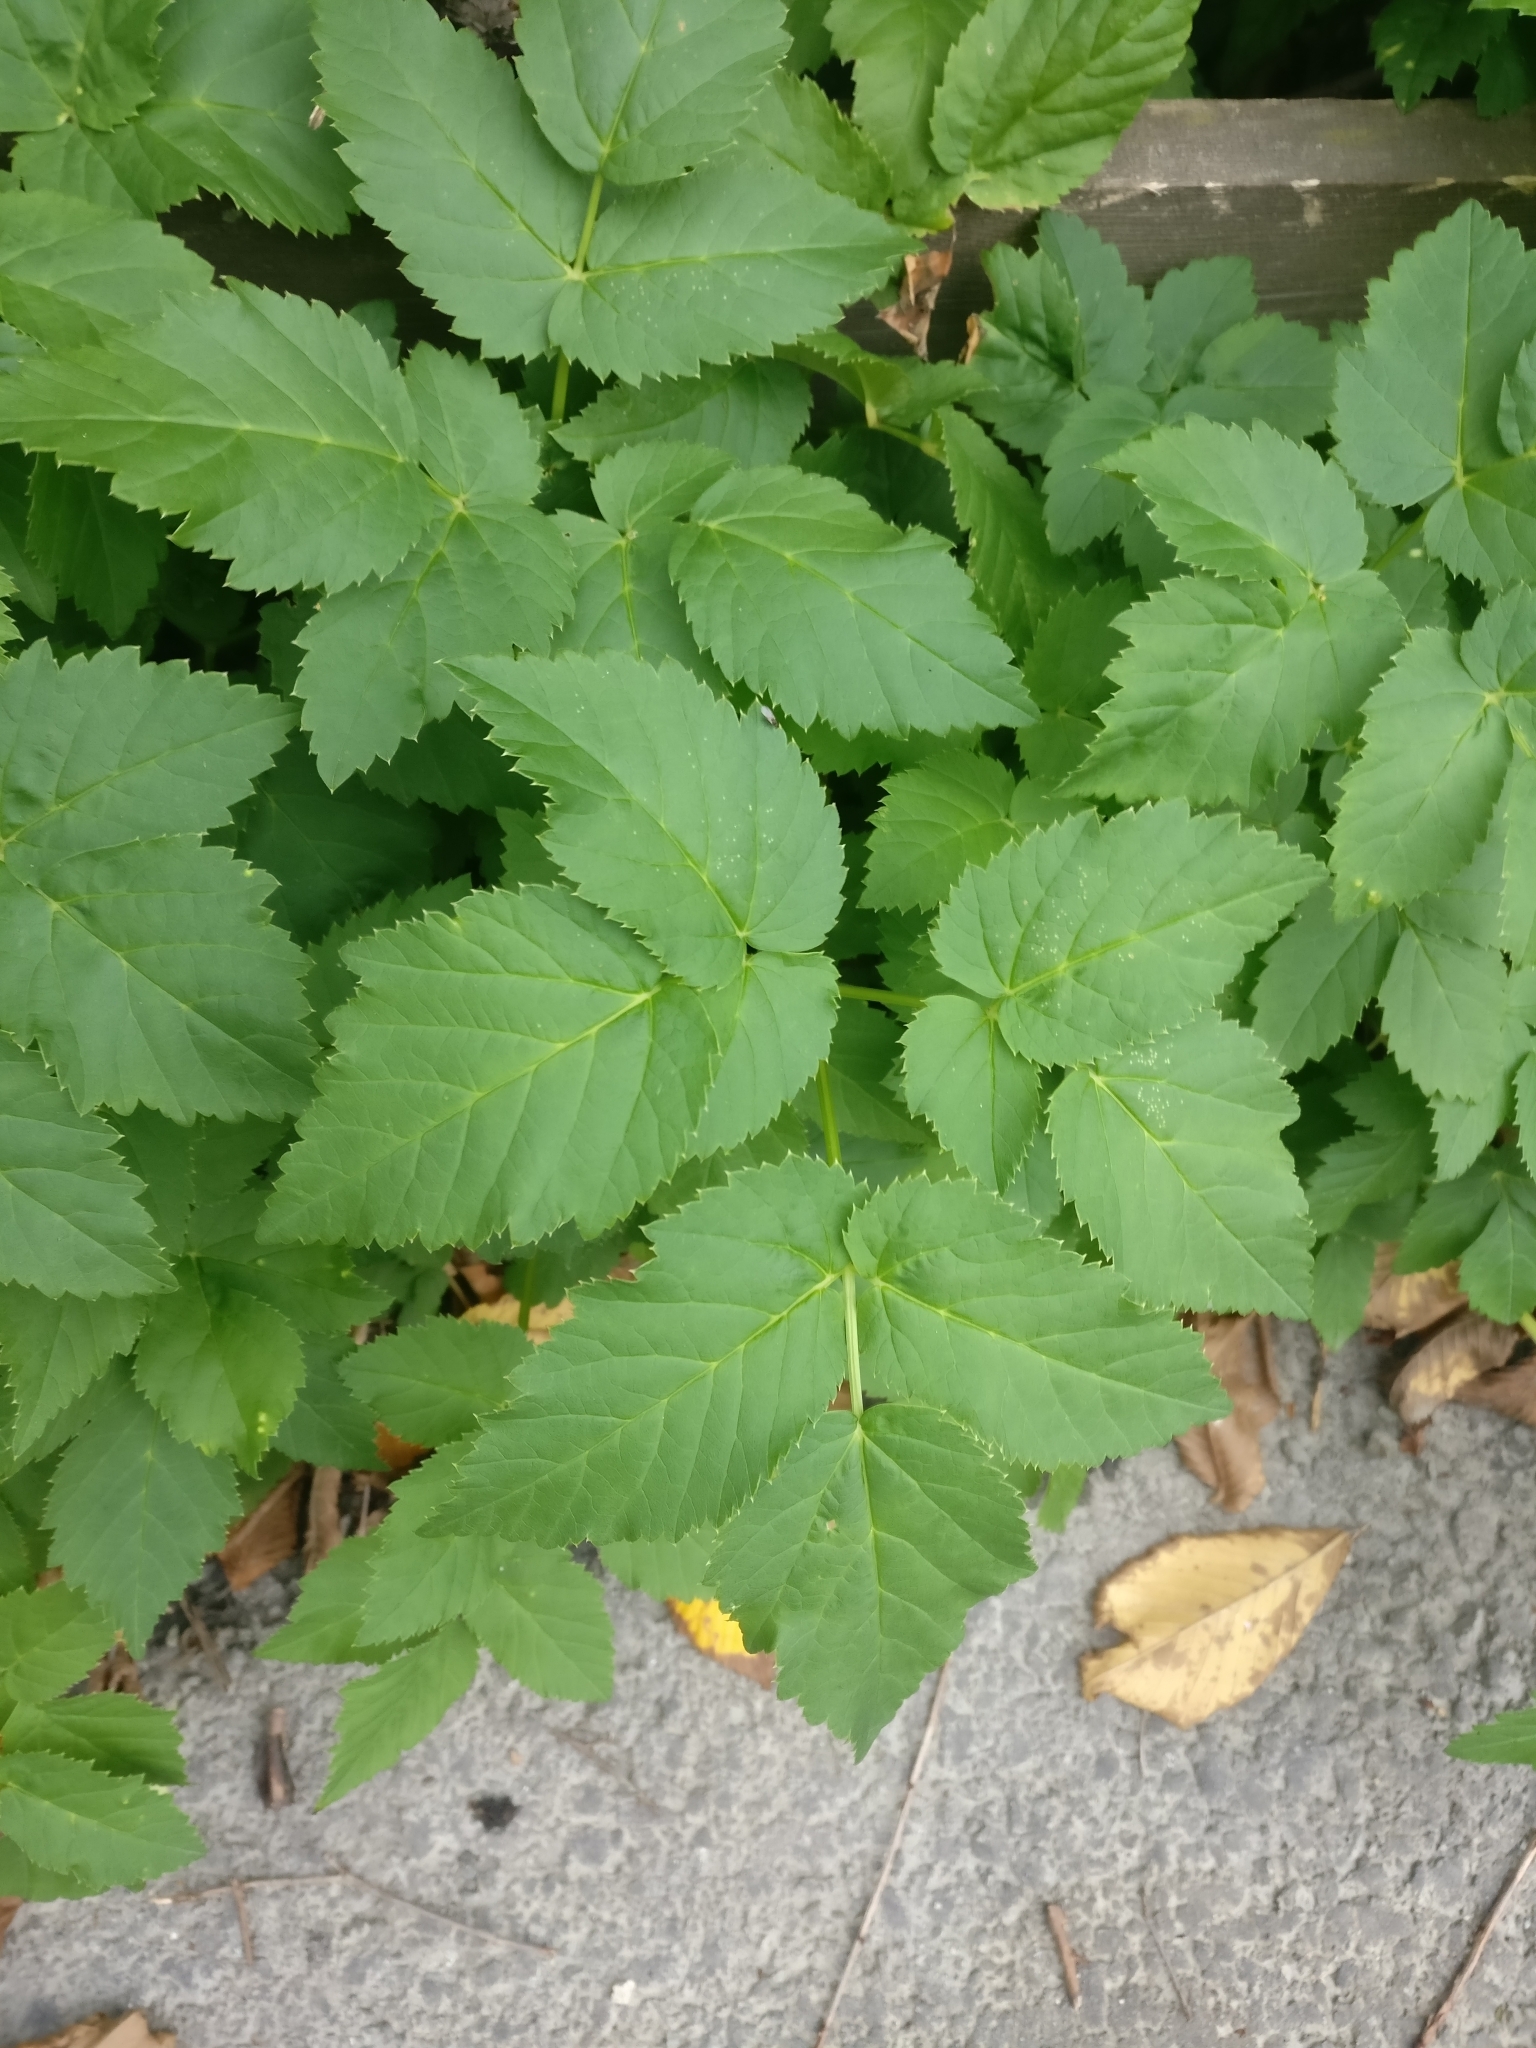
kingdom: Plantae
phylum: Tracheophyta
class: Magnoliopsida
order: Apiales
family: Apiaceae
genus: Aegopodium
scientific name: Aegopodium podagraria
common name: Ground-elder
